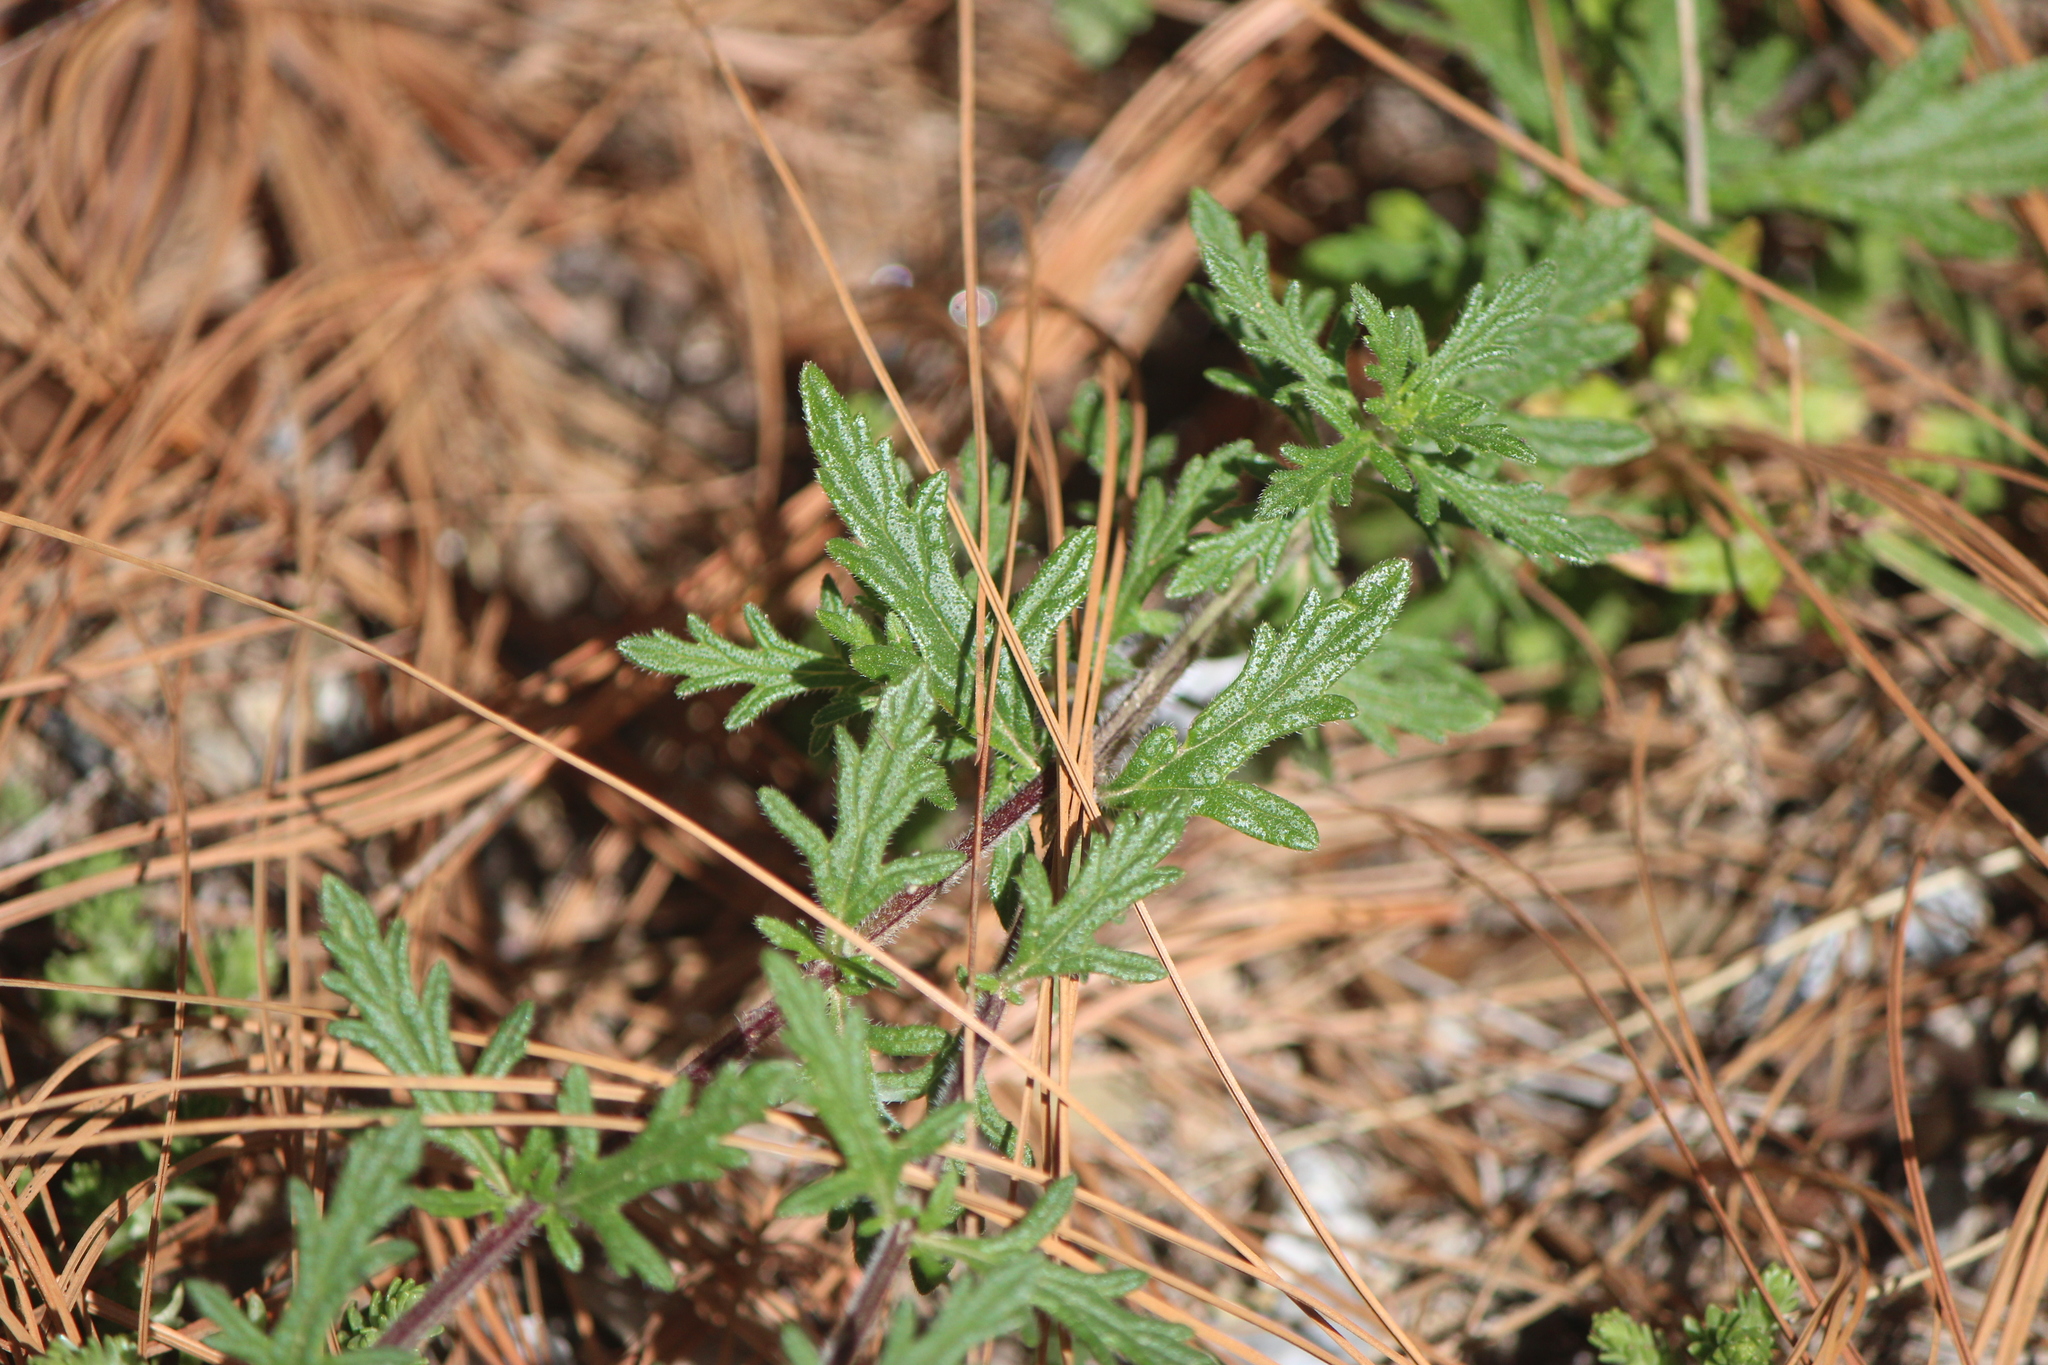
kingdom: Plantae
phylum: Tracheophyta
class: Magnoliopsida
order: Lamiales
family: Verbenaceae
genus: Verbena
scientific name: Verbena bipinnatifida
